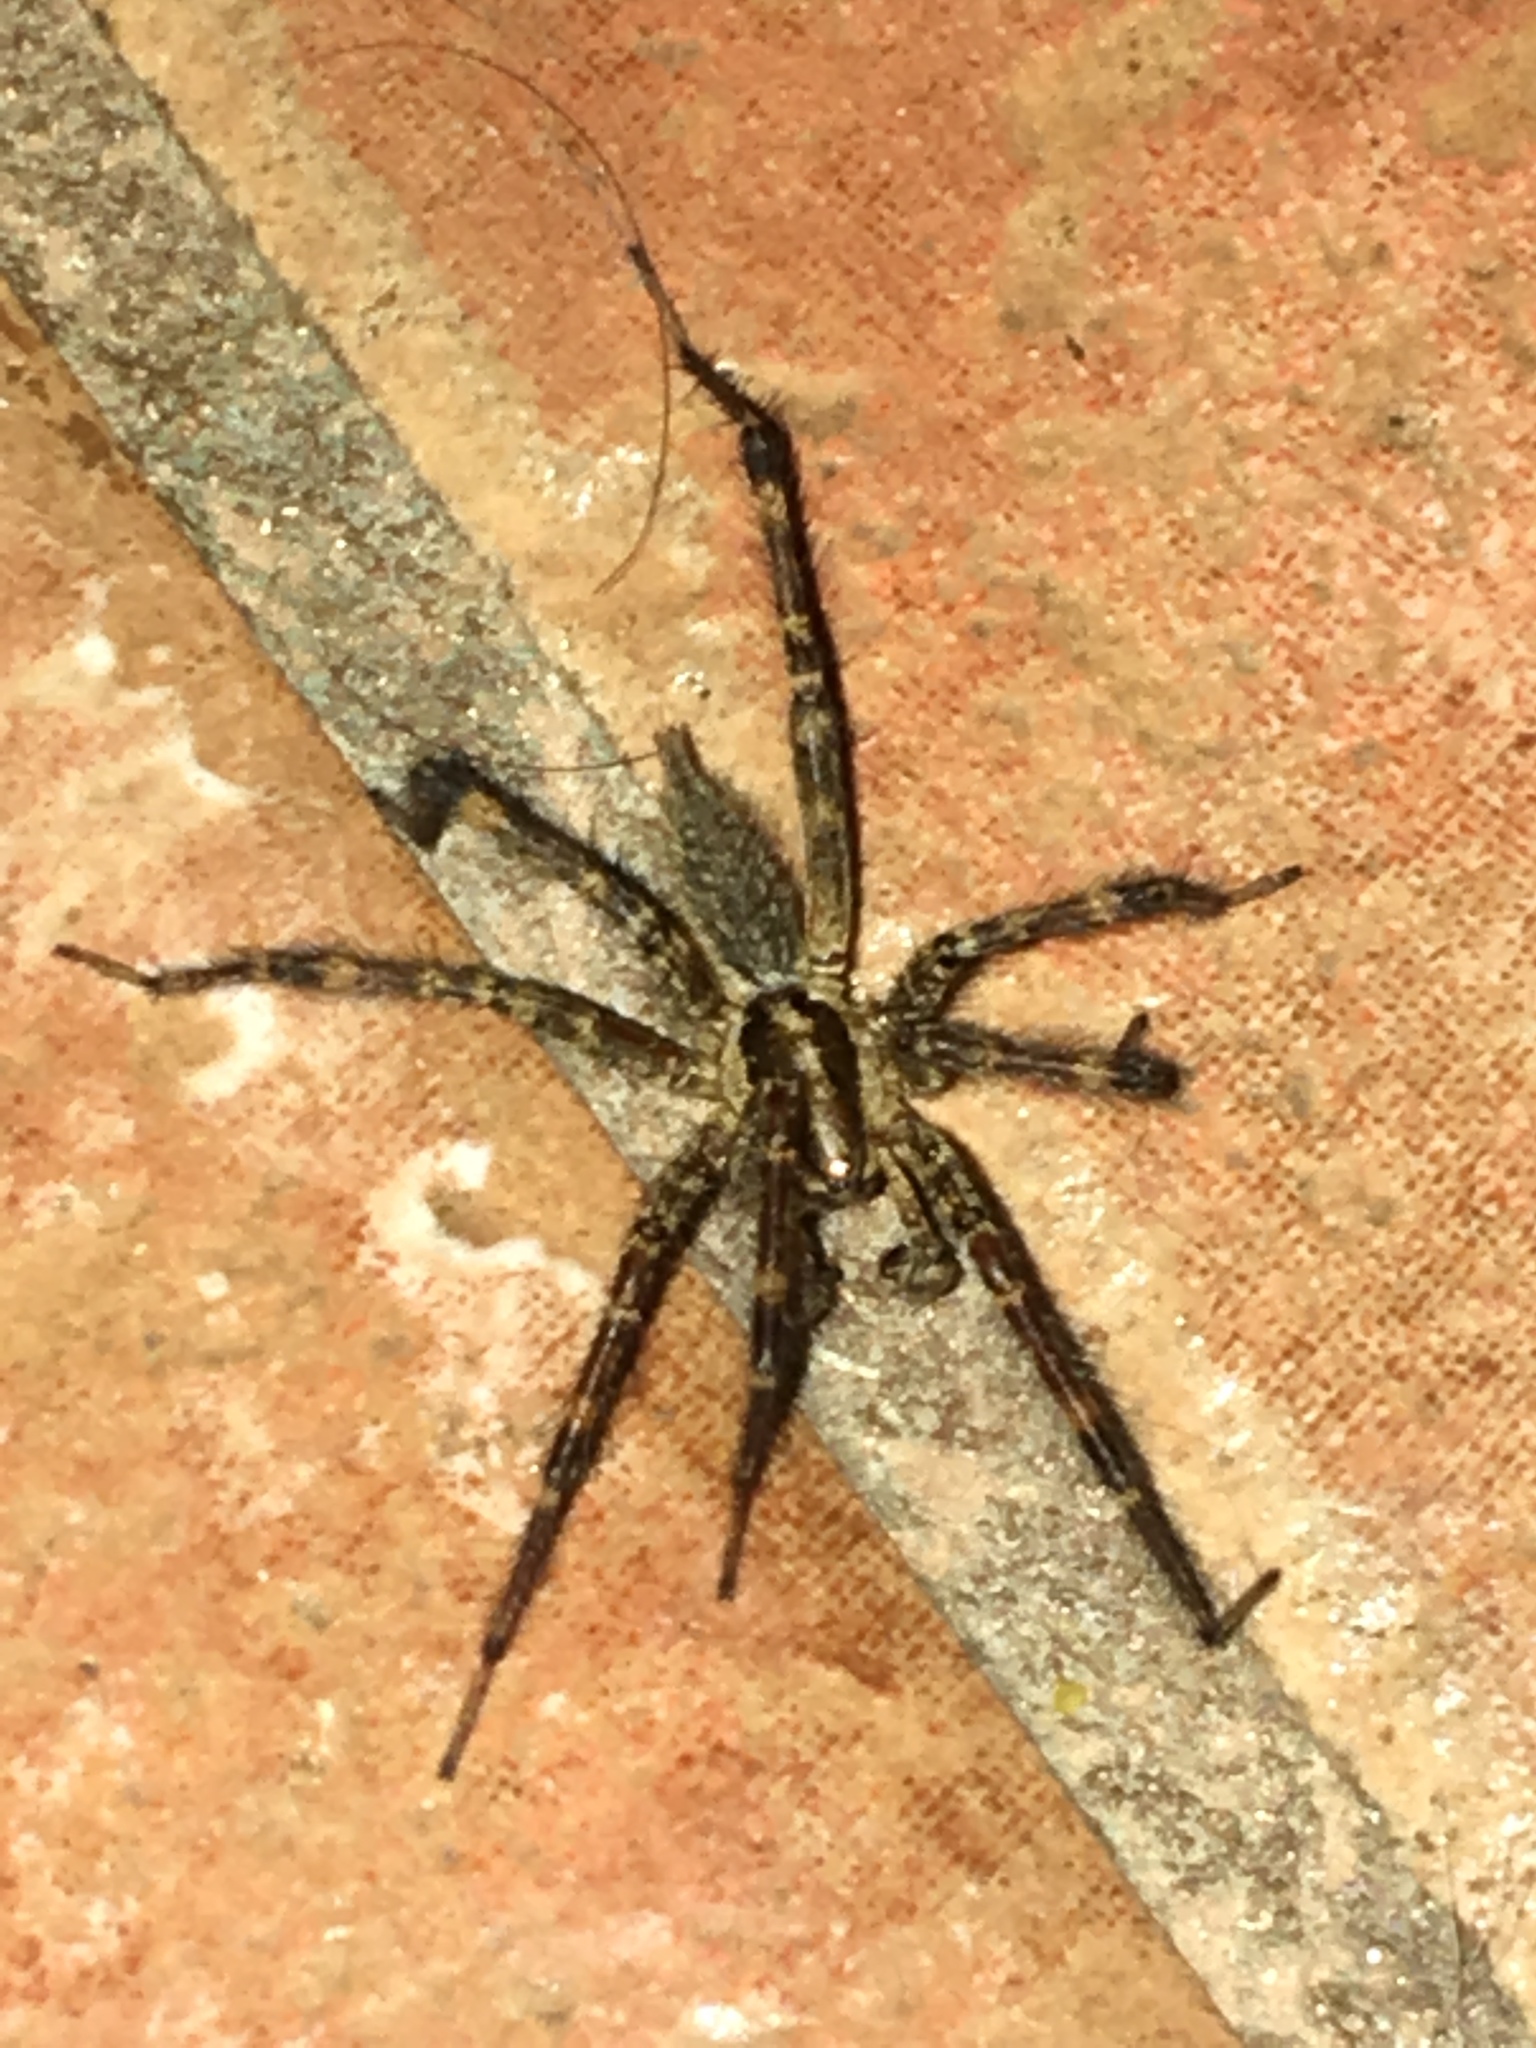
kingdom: Animalia
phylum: Arthropoda
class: Arachnida
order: Araneae
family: Agelenidae
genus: Agelenopsis
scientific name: Agelenopsis
